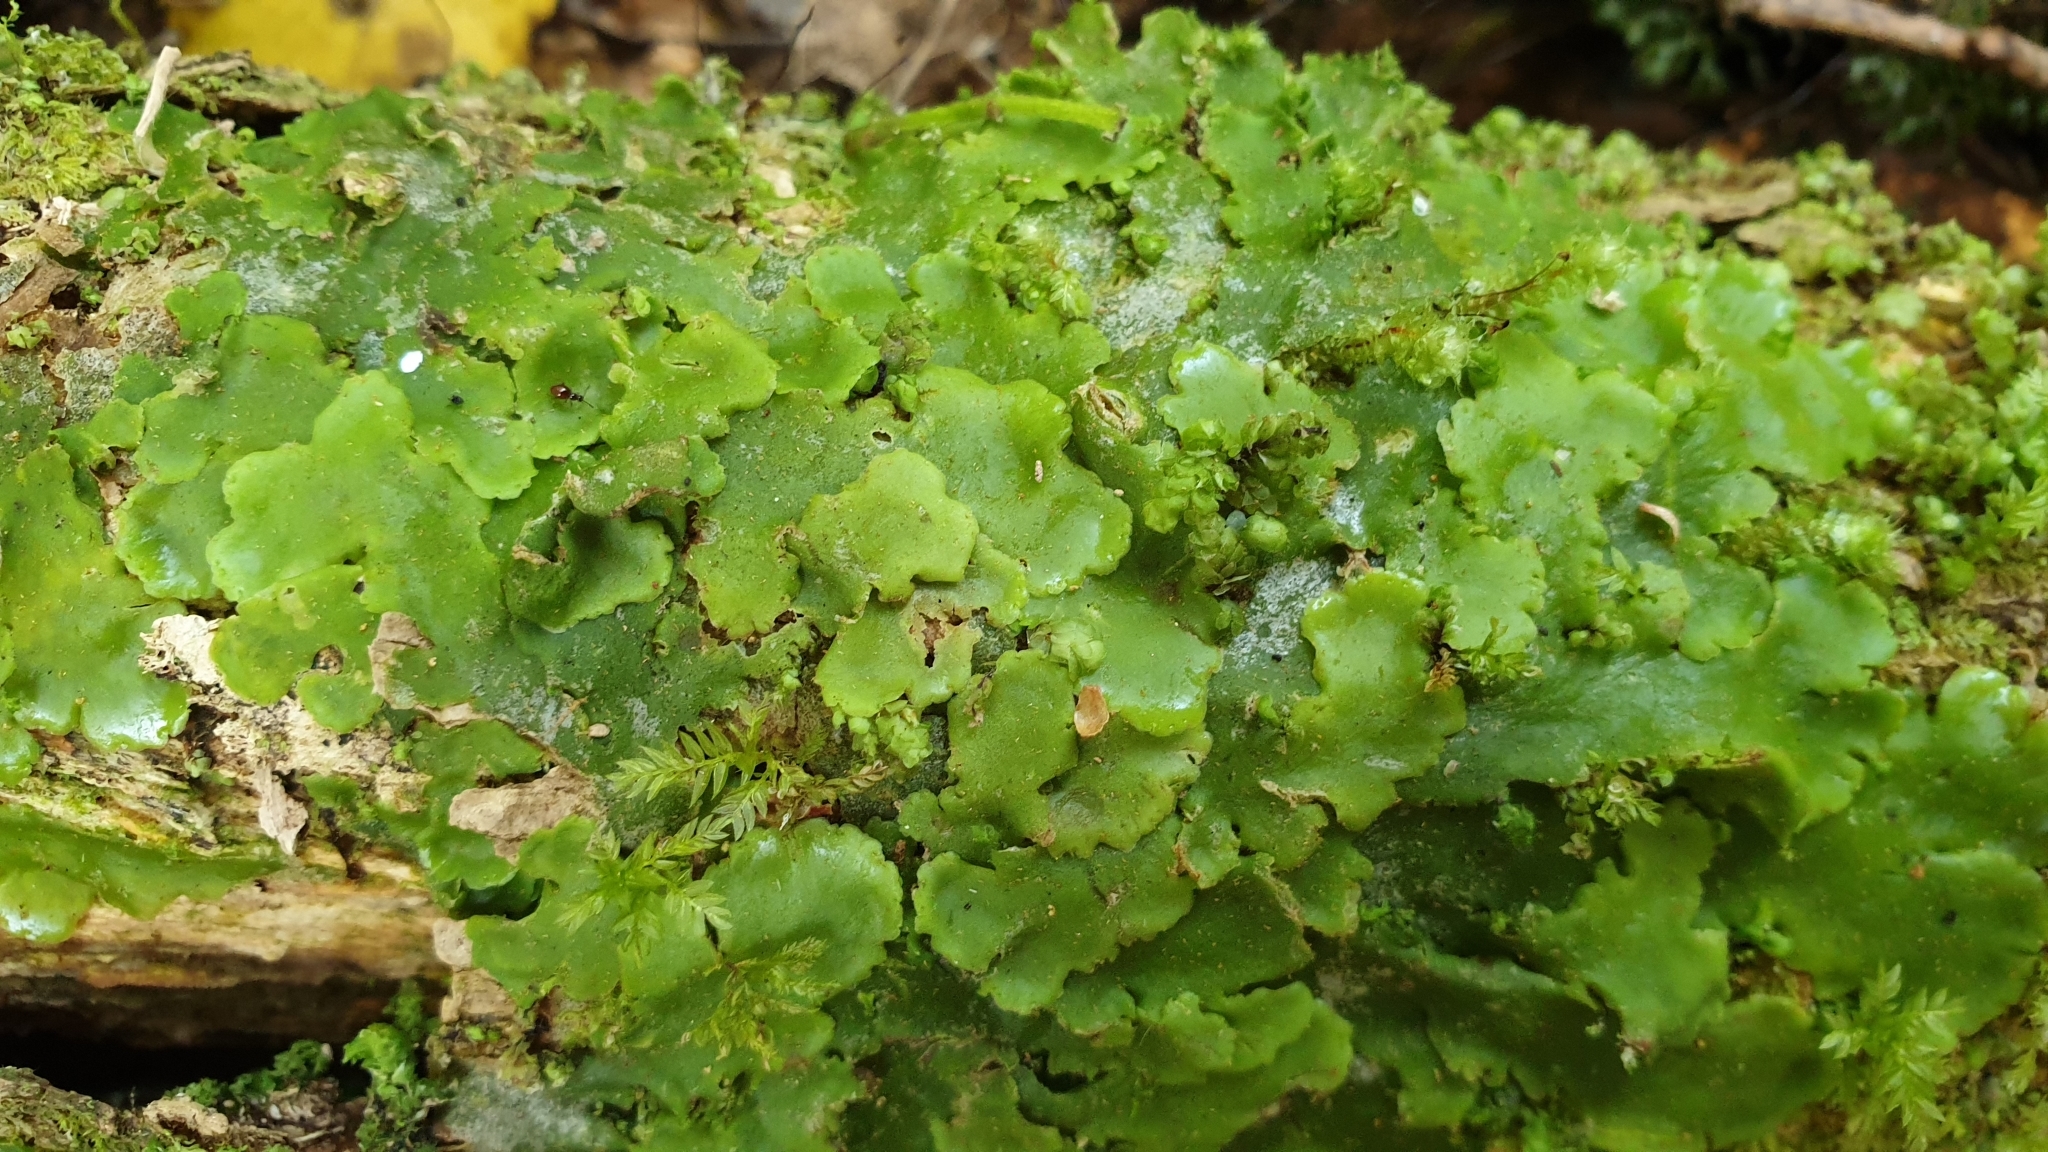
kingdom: Plantae
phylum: Marchantiophyta
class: Jungermanniopsida
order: Metzgeriales
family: Aneuraceae
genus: Lobatiriccardia
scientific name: Lobatiriccardia alterniloba
